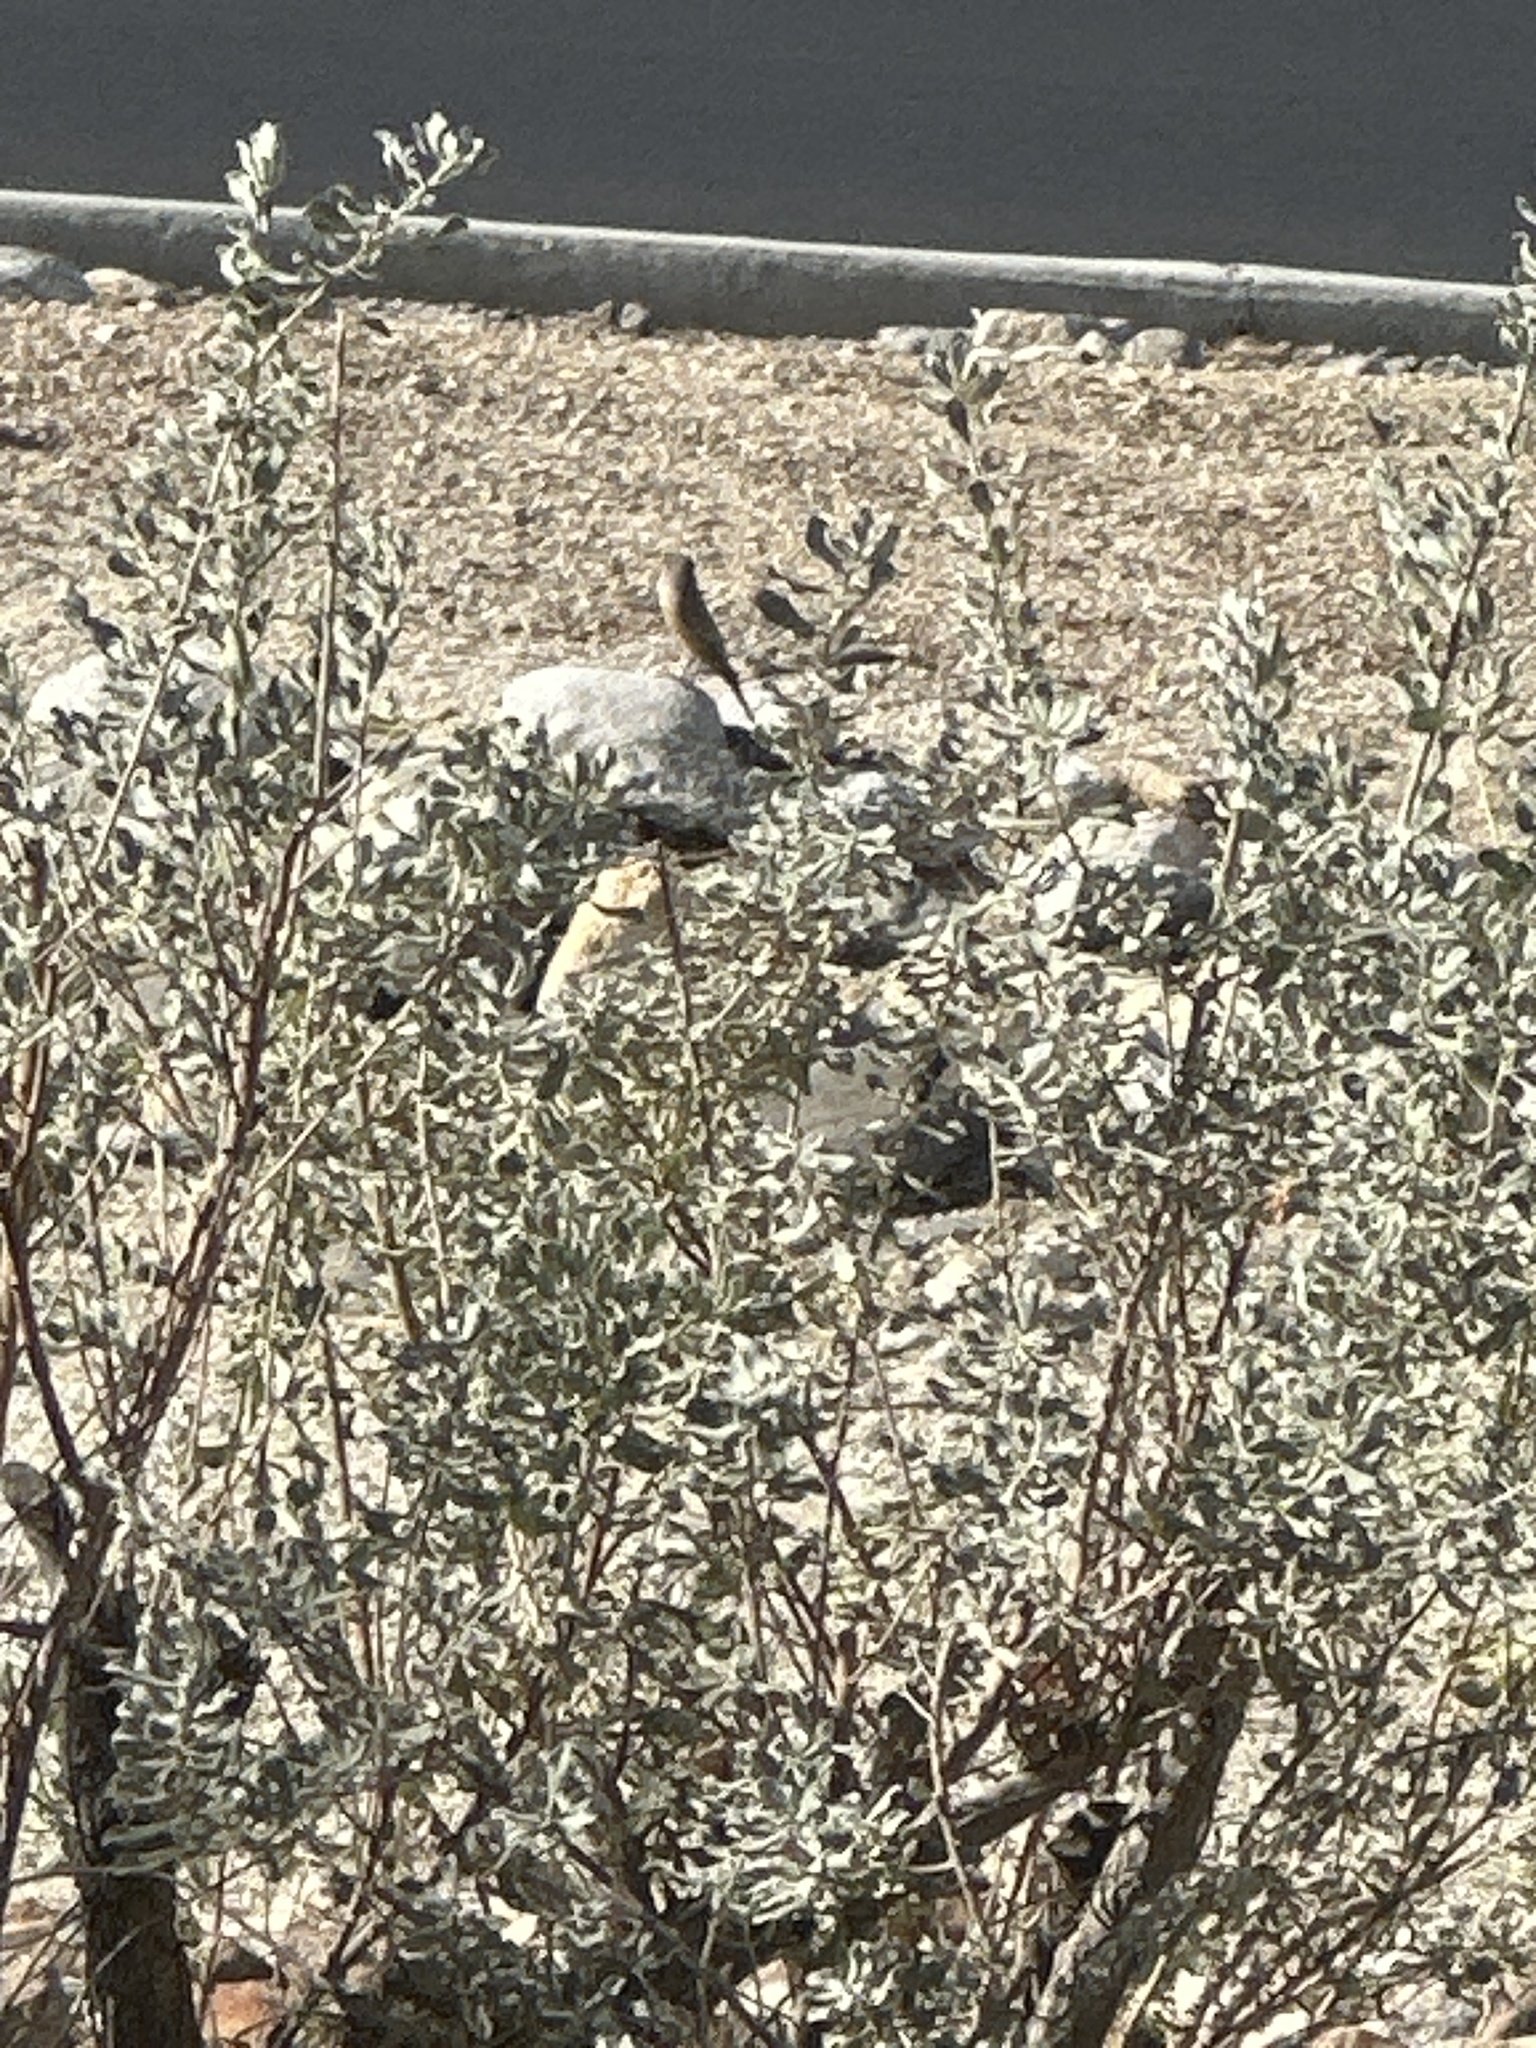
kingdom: Animalia
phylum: Chordata
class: Aves
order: Passeriformes
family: Tyrannidae
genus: Sayornis
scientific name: Sayornis saya
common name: Say's phoebe
